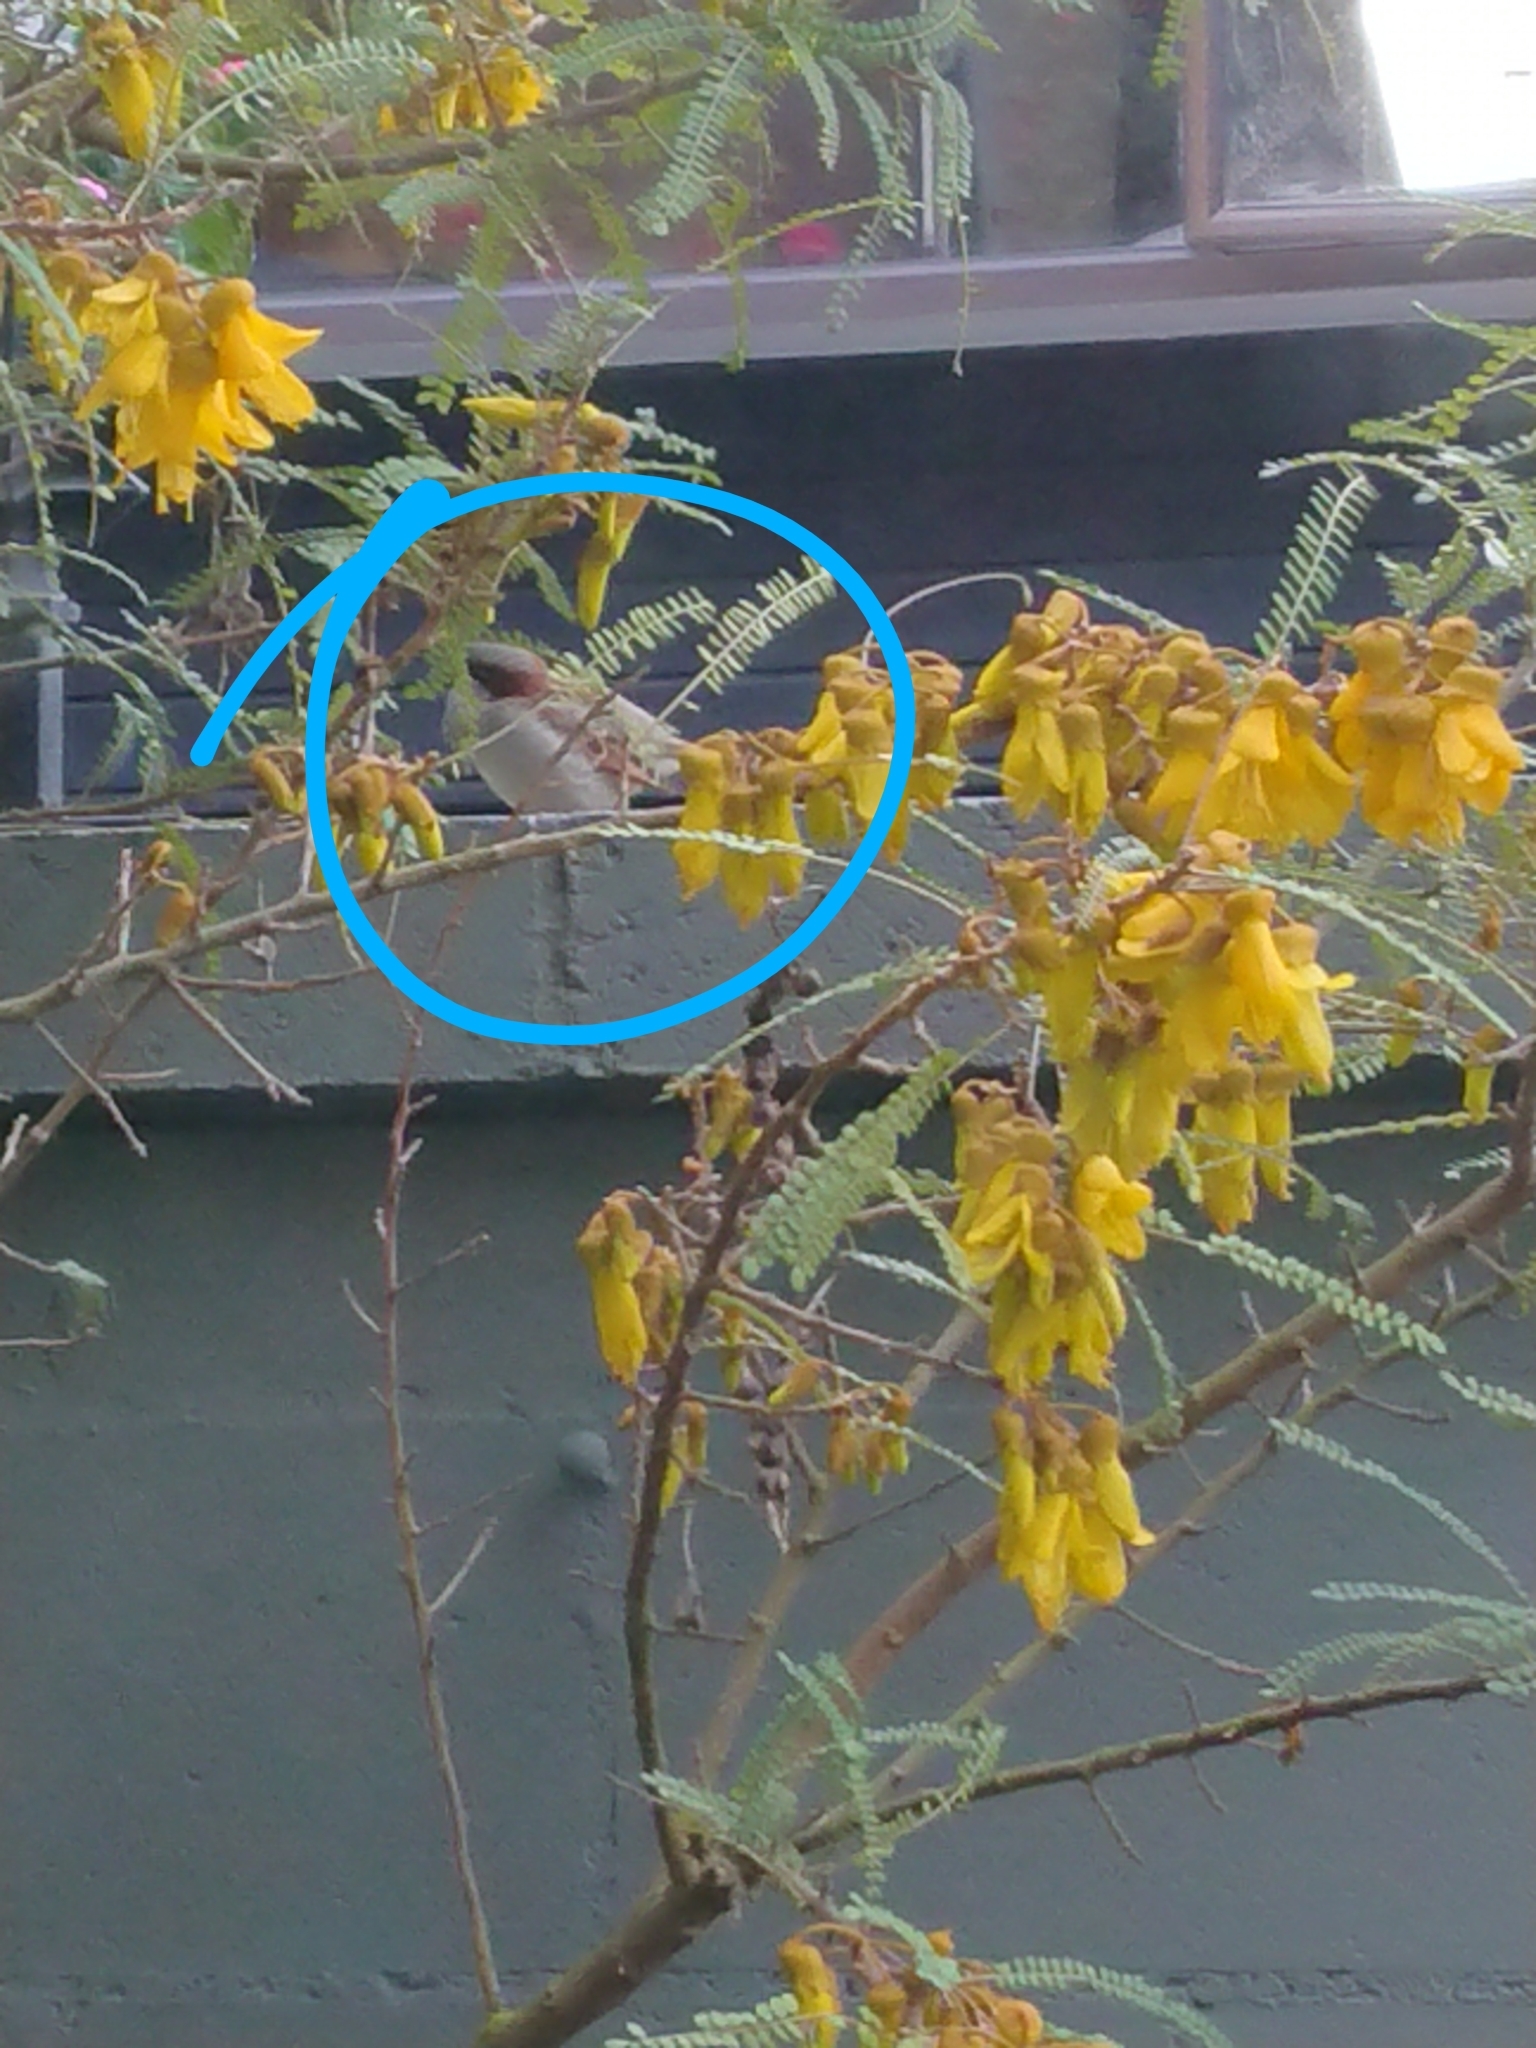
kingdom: Animalia
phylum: Chordata
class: Aves
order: Passeriformes
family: Passeridae
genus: Passer
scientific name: Passer domesticus
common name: House sparrow
